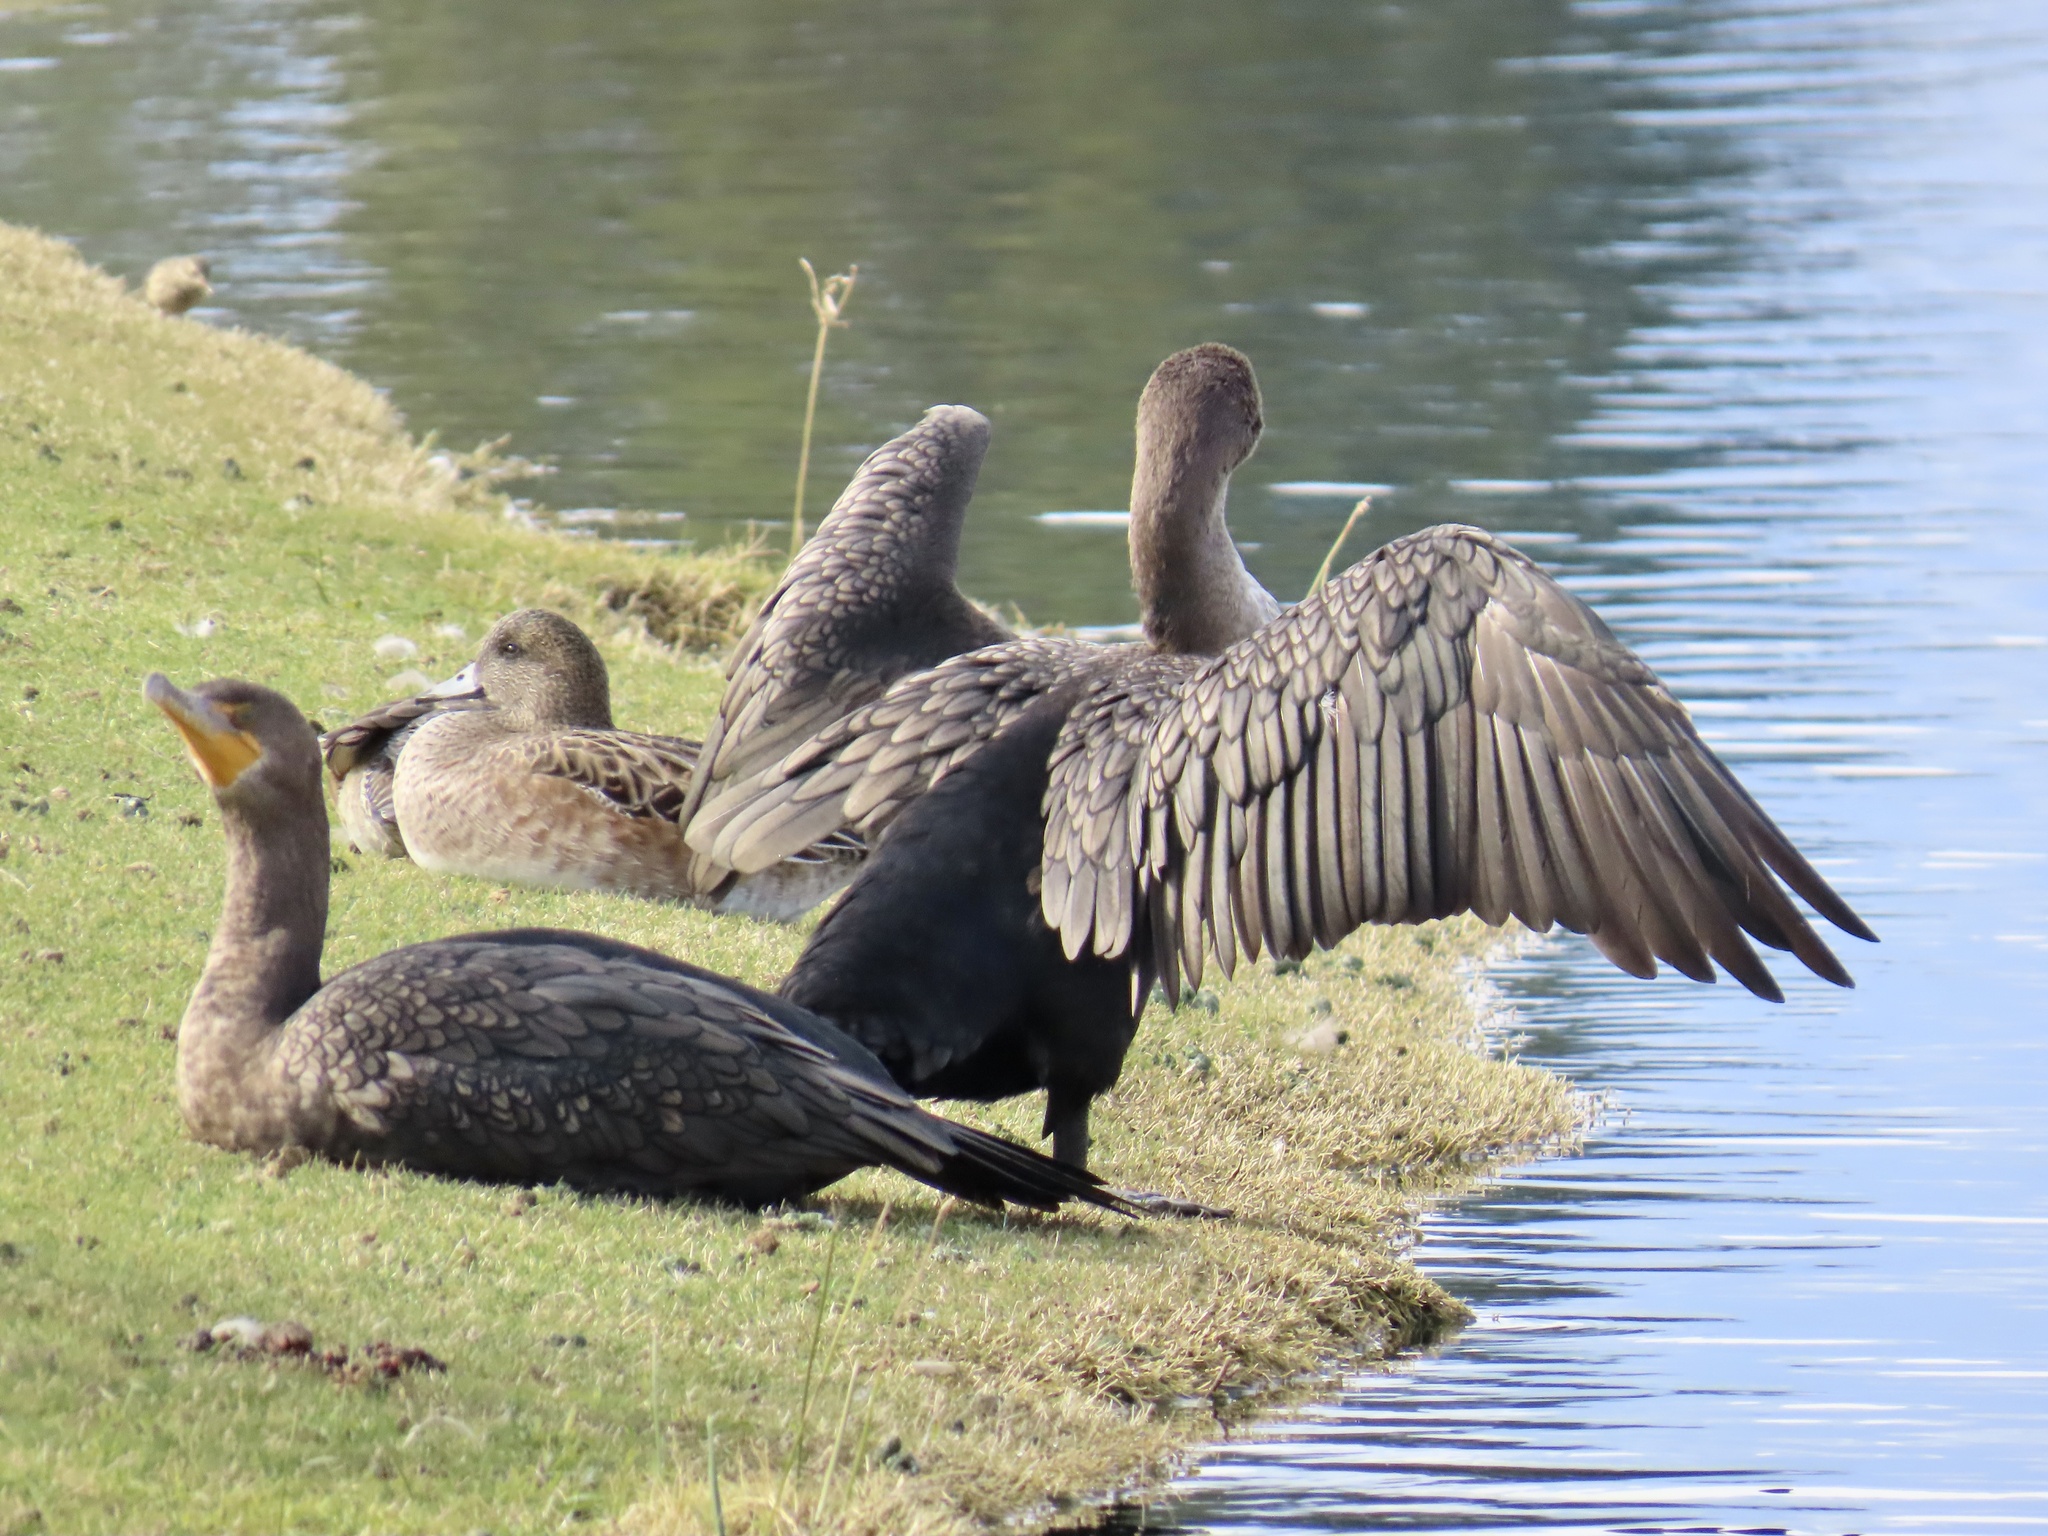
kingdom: Animalia
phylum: Chordata
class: Aves
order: Suliformes
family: Phalacrocoracidae
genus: Phalacrocorax
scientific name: Phalacrocorax auritus
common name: Double-crested cormorant
